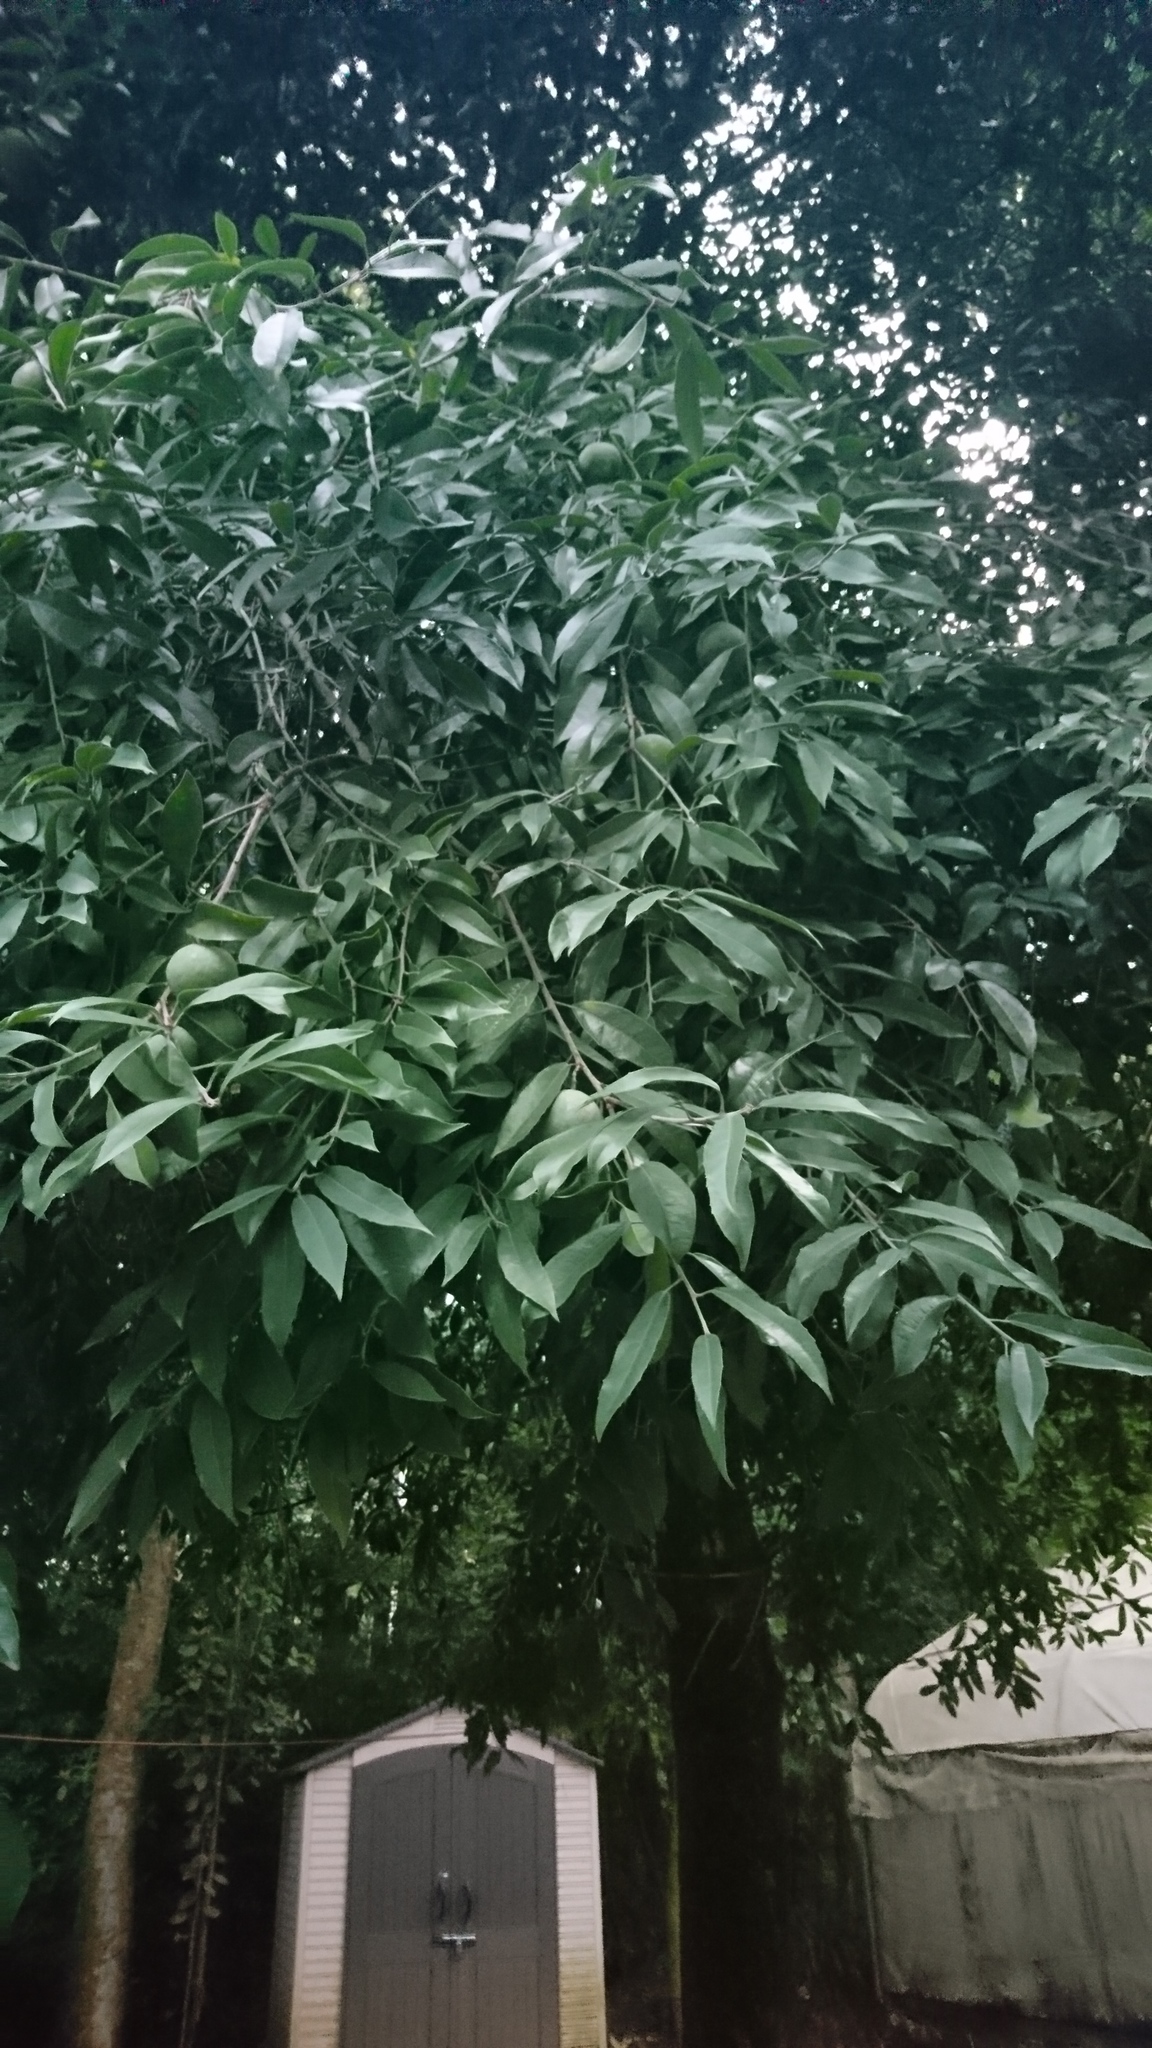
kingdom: Plantae
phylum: Tracheophyta
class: Magnoliopsida
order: Malpighiales
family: Salicaceae
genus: Olmediella
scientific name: Olmediella betschleriana
